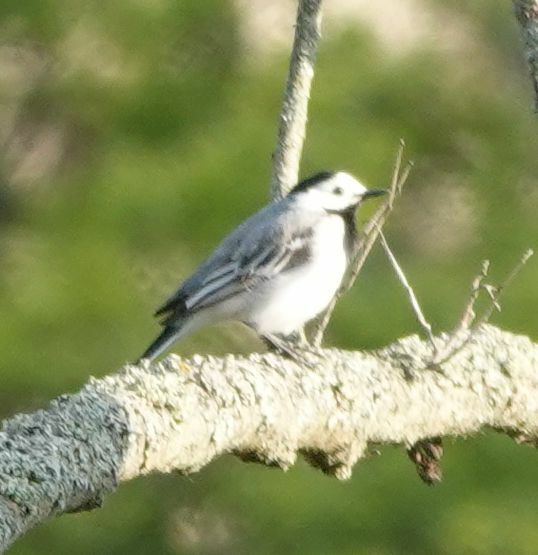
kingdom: Animalia
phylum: Chordata
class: Aves
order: Passeriformes
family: Motacillidae
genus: Motacilla
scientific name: Motacilla alba
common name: White wagtail
